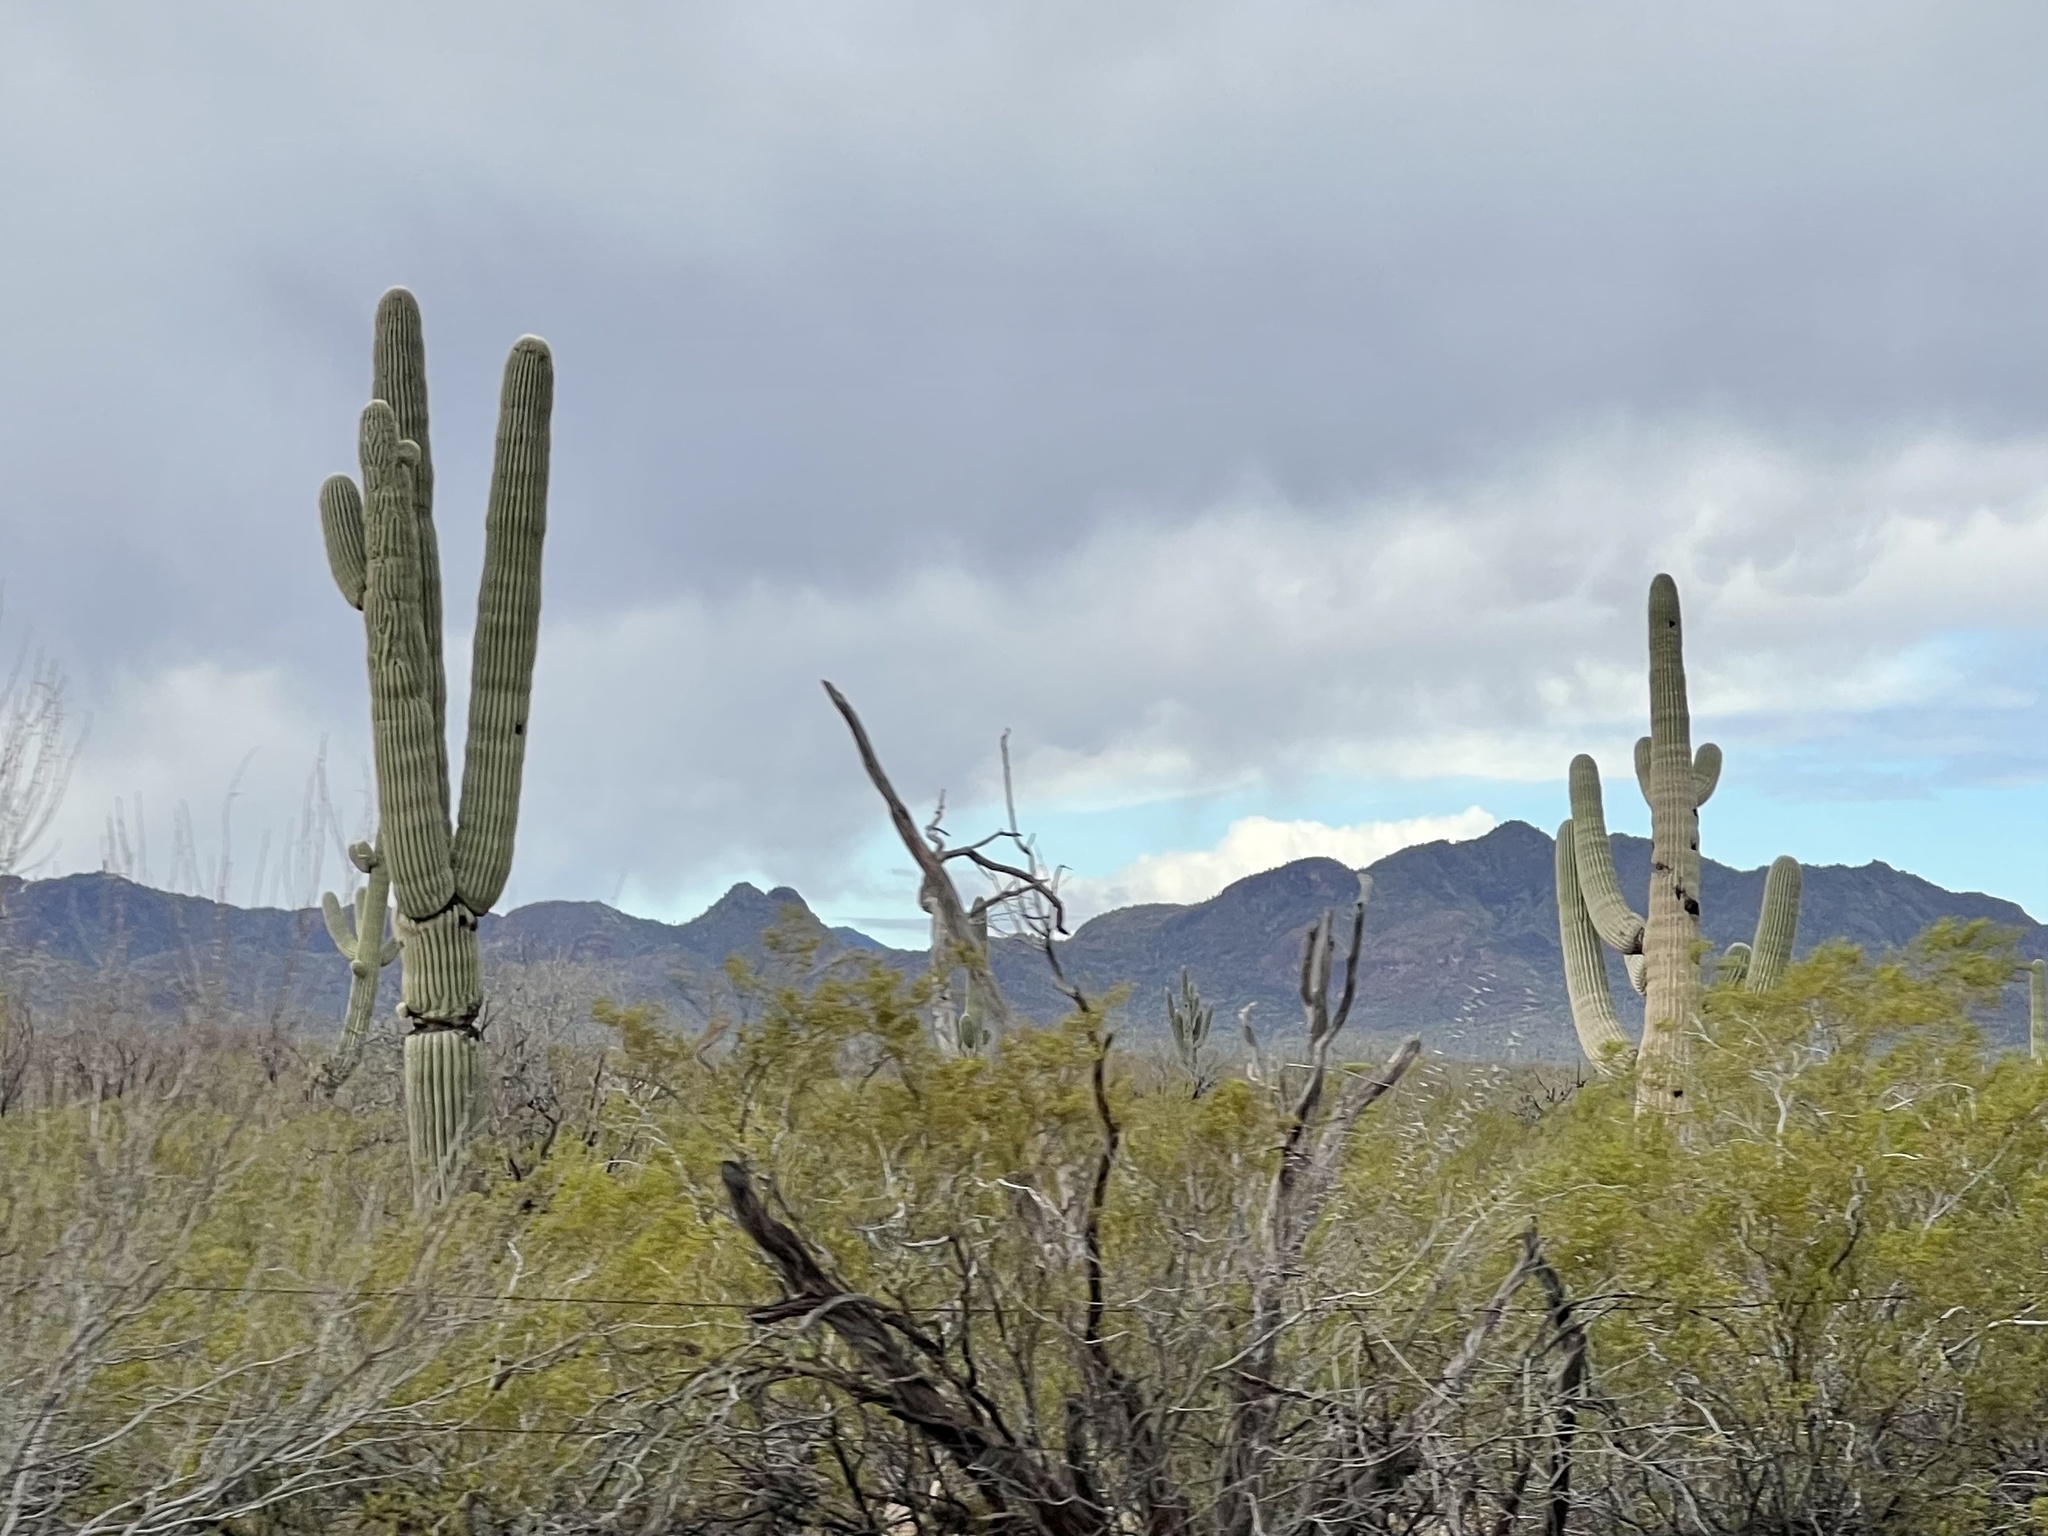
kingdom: Plantae
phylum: Tracheophyta
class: Magnoliopsida
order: Caryophyllales
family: Cactaceae
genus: Carnegiea
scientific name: Carnegiea gigantea
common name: Saguaro
